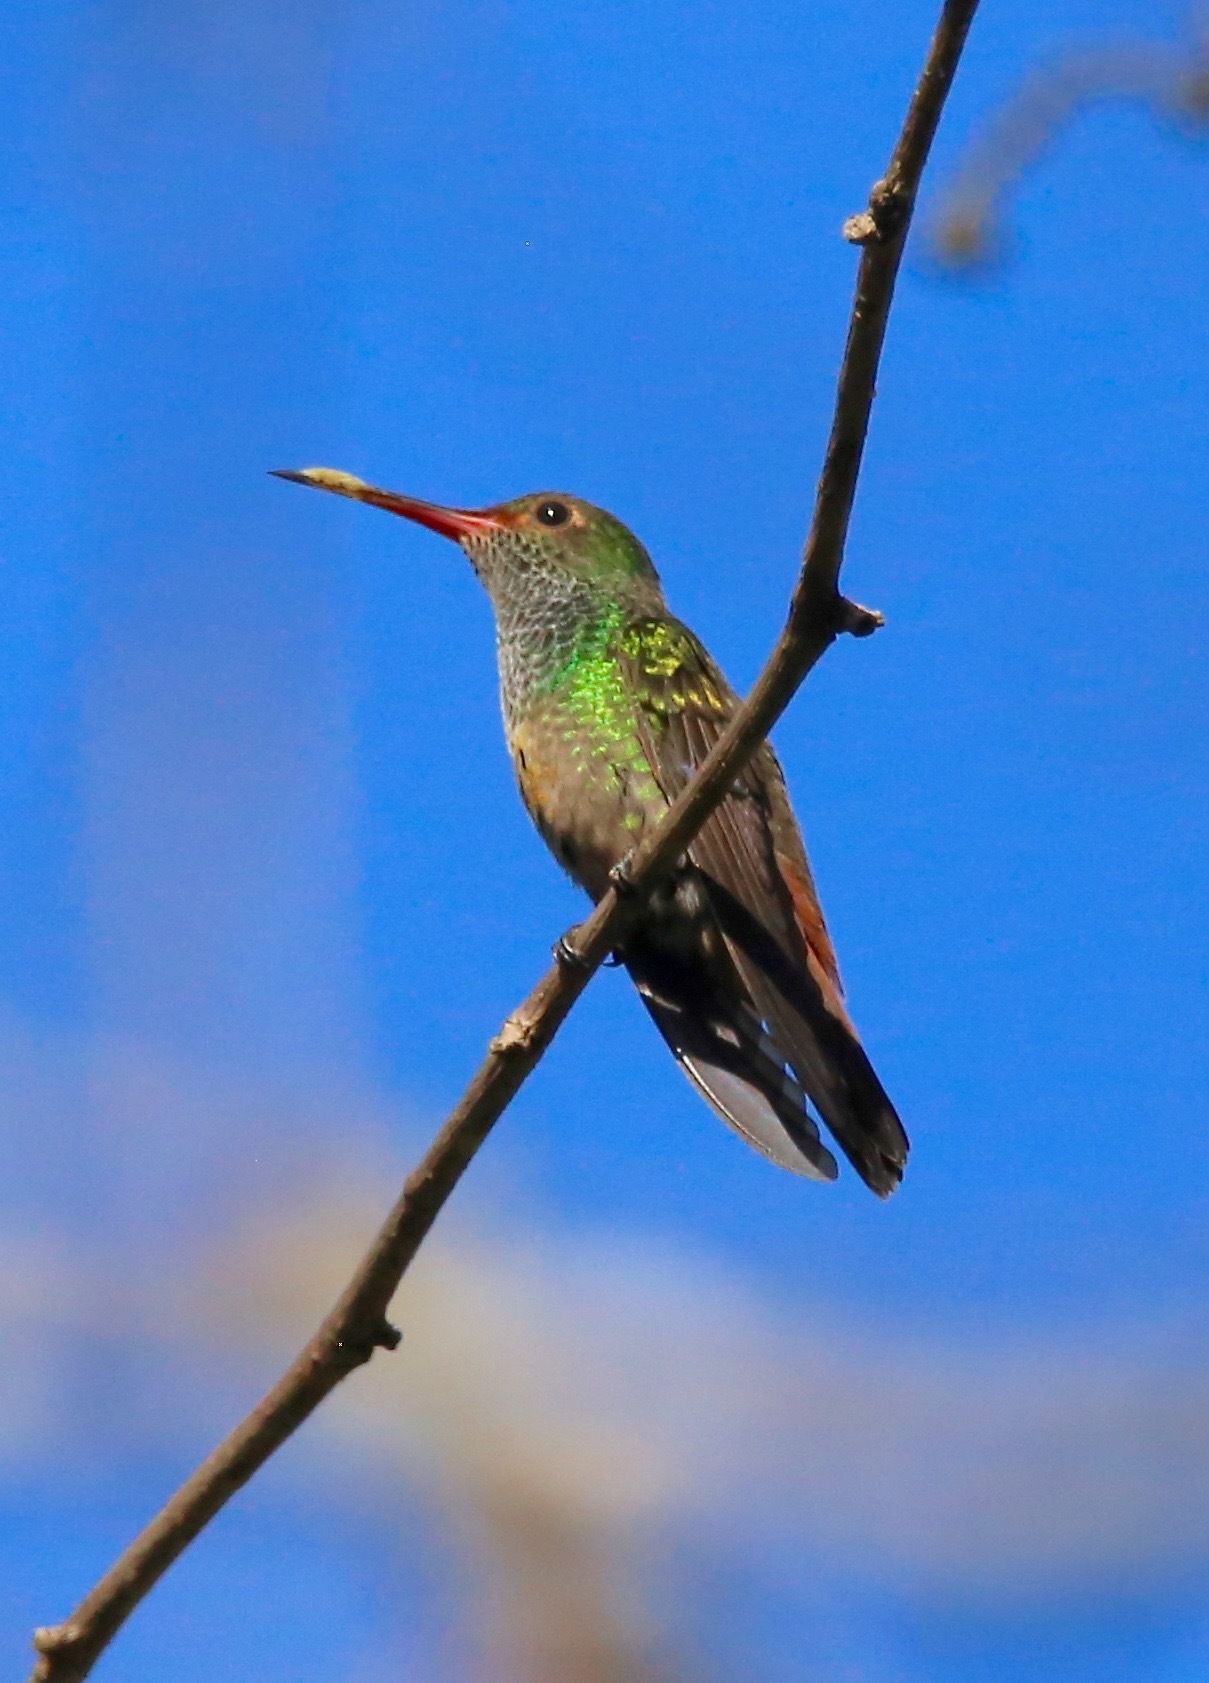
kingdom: Animalia
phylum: Chordata
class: Aves
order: Apodiformes
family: Trochilidae
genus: Amazilia
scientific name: Amazilia tzacatl
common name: Rufous-tailed hummingbird
